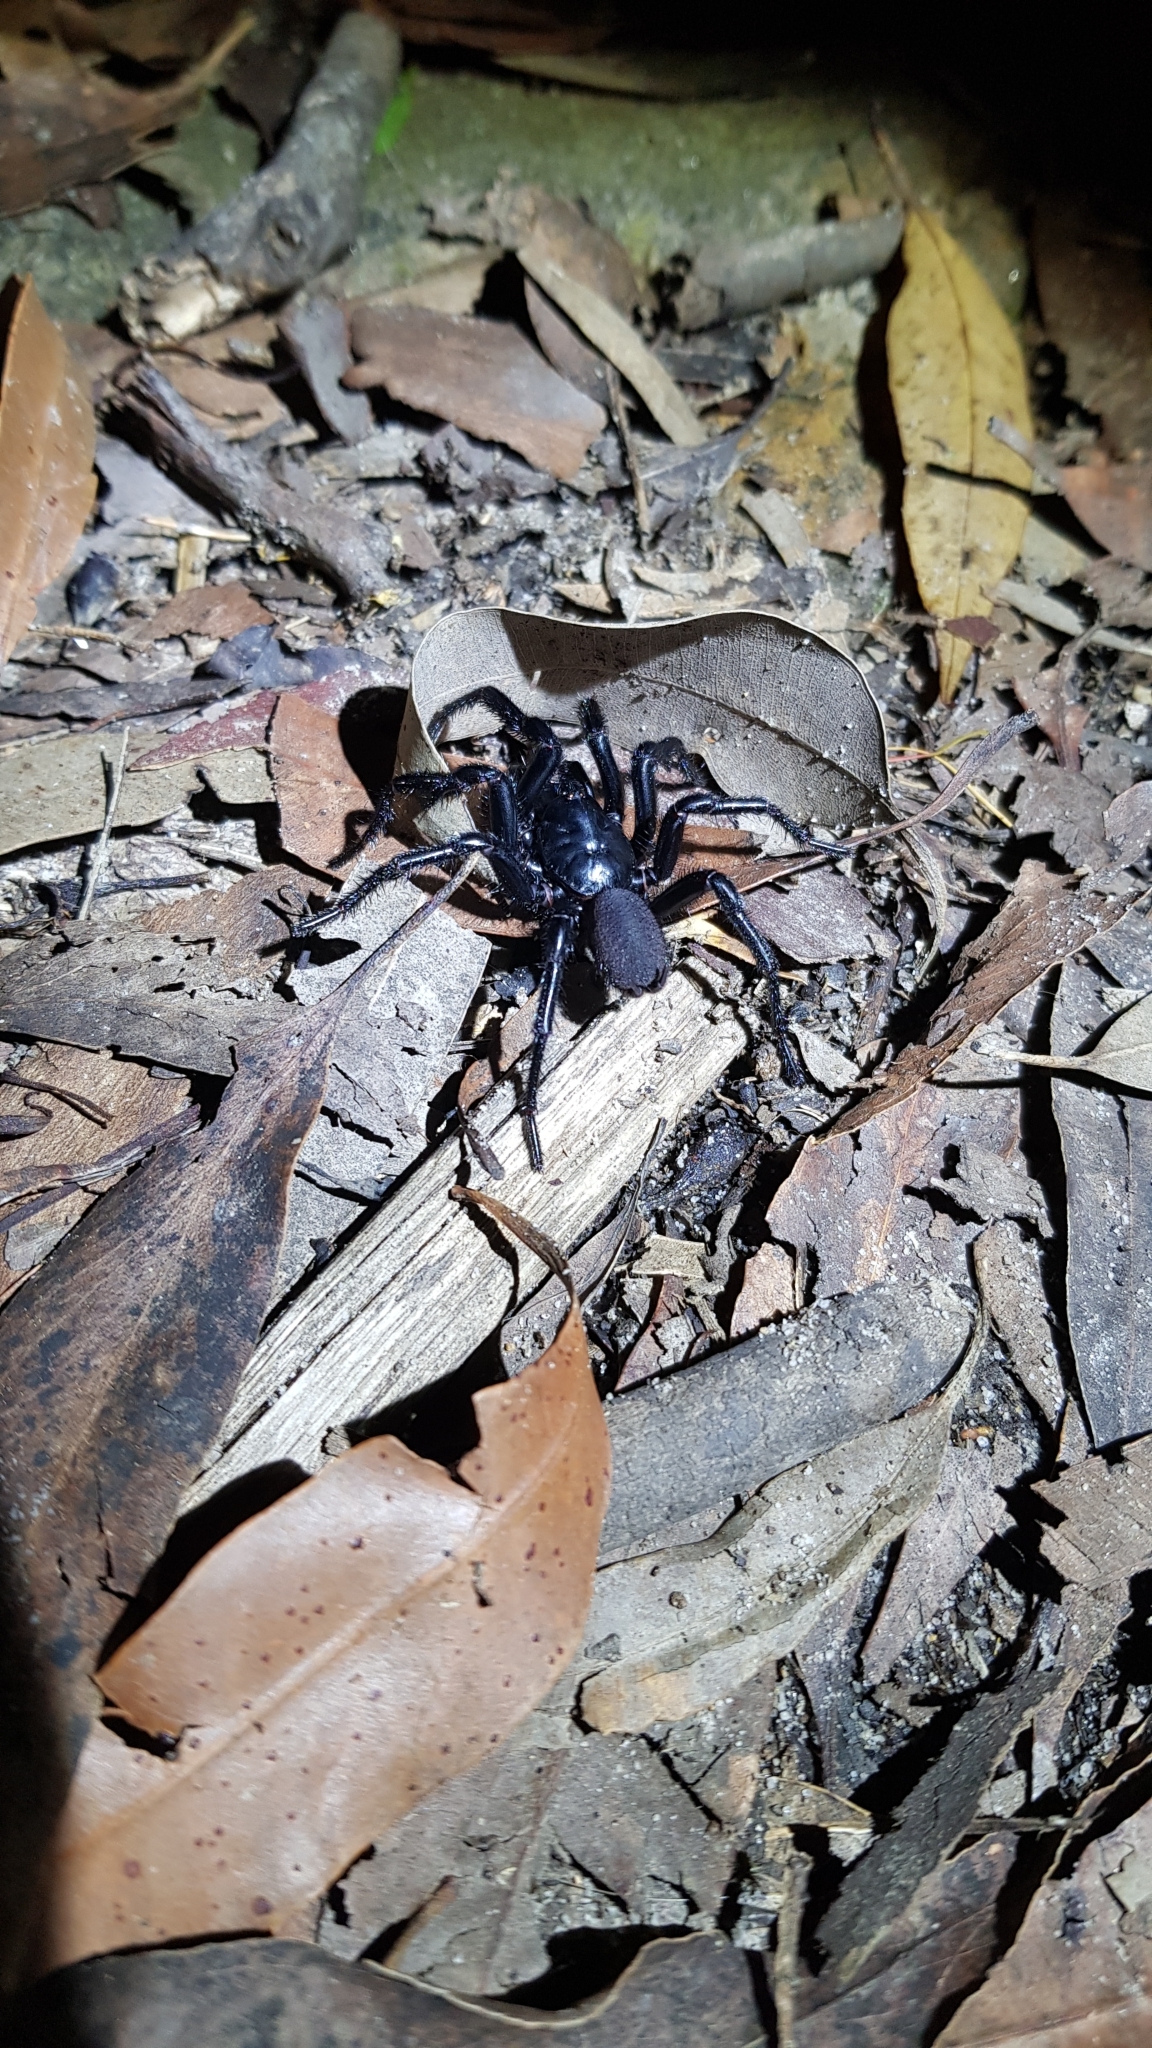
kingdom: Animalia
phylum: Arthropoda
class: Arachnida
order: Araneae
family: Atracidae
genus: Atrax
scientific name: Atrax robustus
